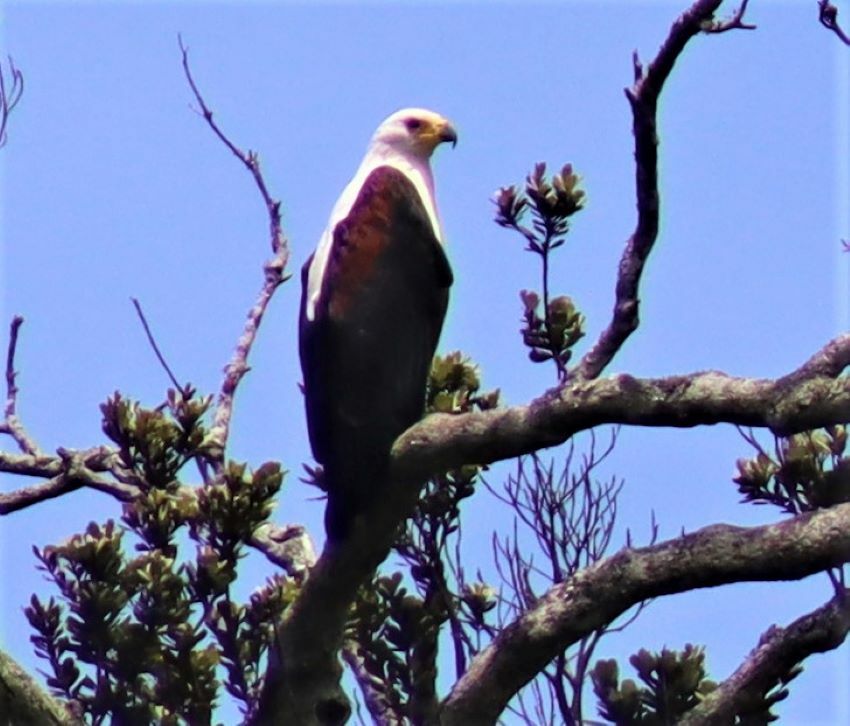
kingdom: Animalia
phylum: Chordata
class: Aves
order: Accipitriformes
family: Accipitridae
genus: Haliaeetus
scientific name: Haliaeetus vocifer
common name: African fish eagle
